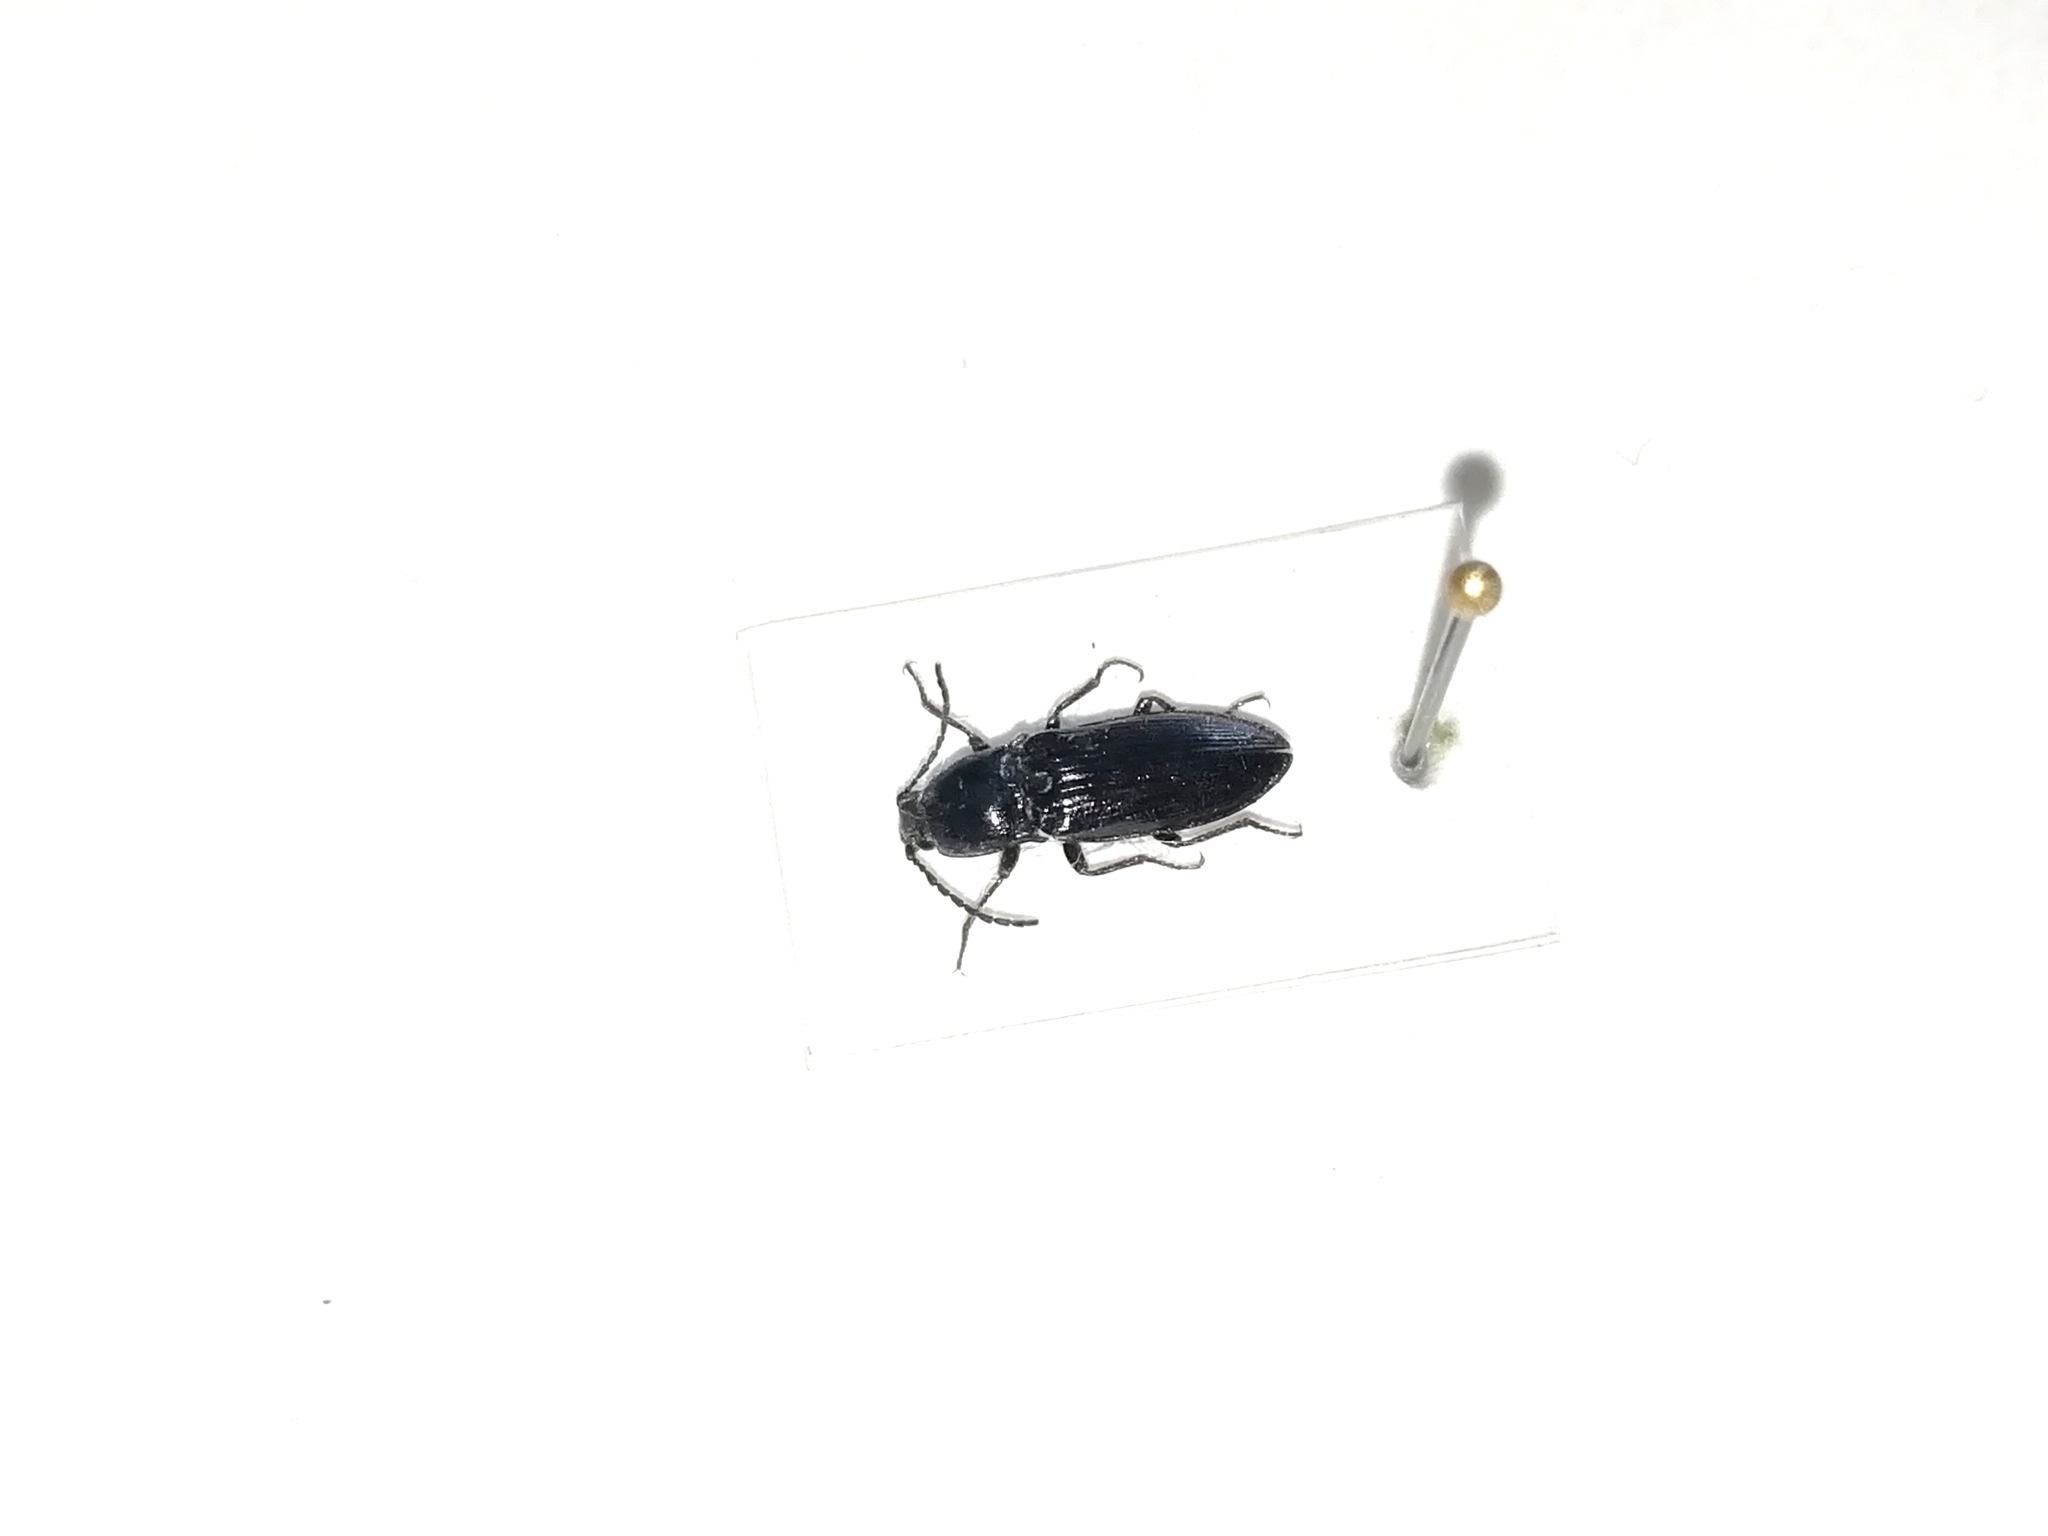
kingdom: Animalia
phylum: Arthropoda
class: Insecta
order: Coleoptera
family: Elateridae
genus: Hemicrepidius
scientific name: Hemicrepidius niger
